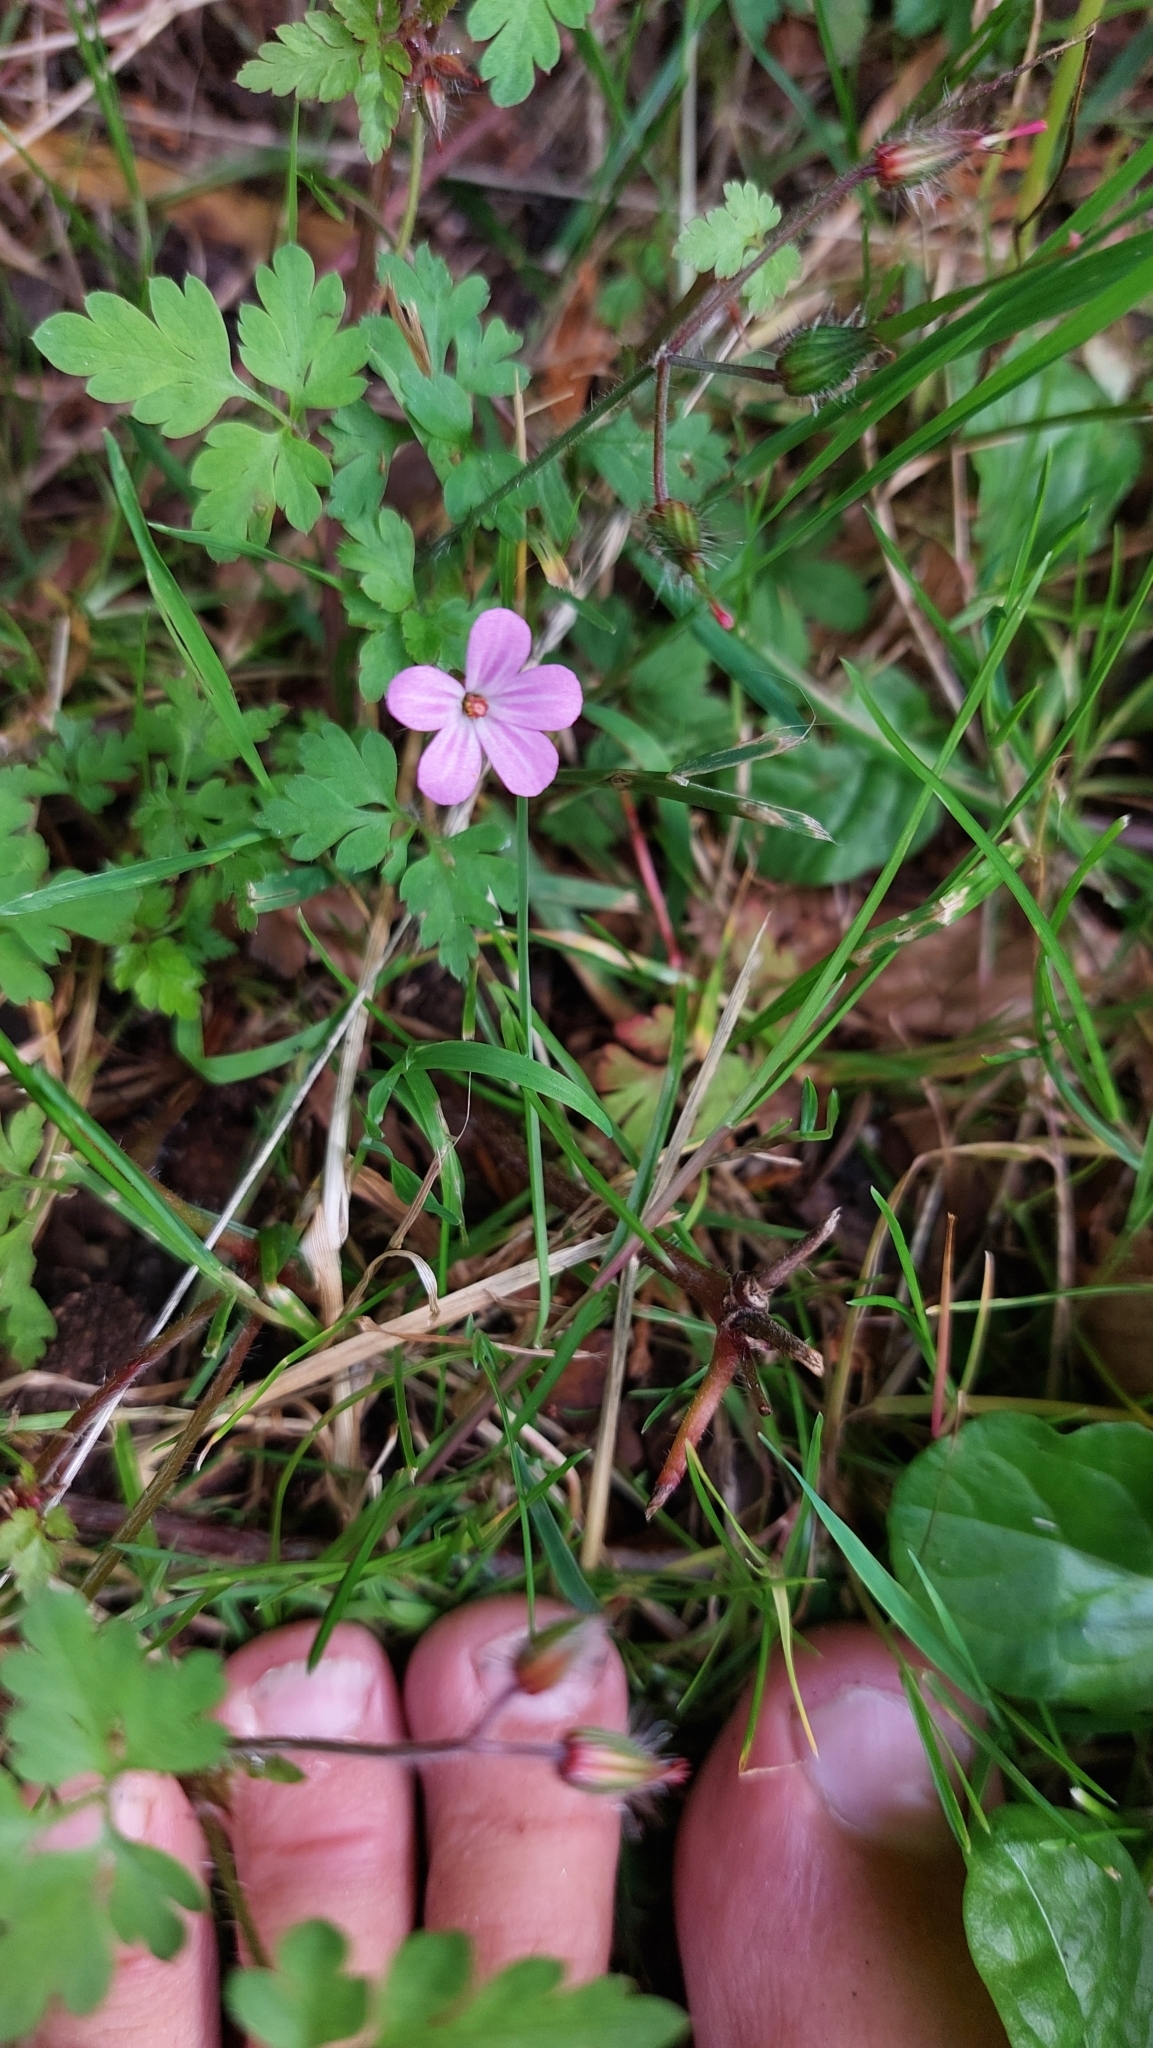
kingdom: Plantae
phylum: Tracheophyta
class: Magnoliopsida
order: Geraniales
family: Geraniaceae
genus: Geranium
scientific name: Geranium robertianum
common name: Herb-robert
